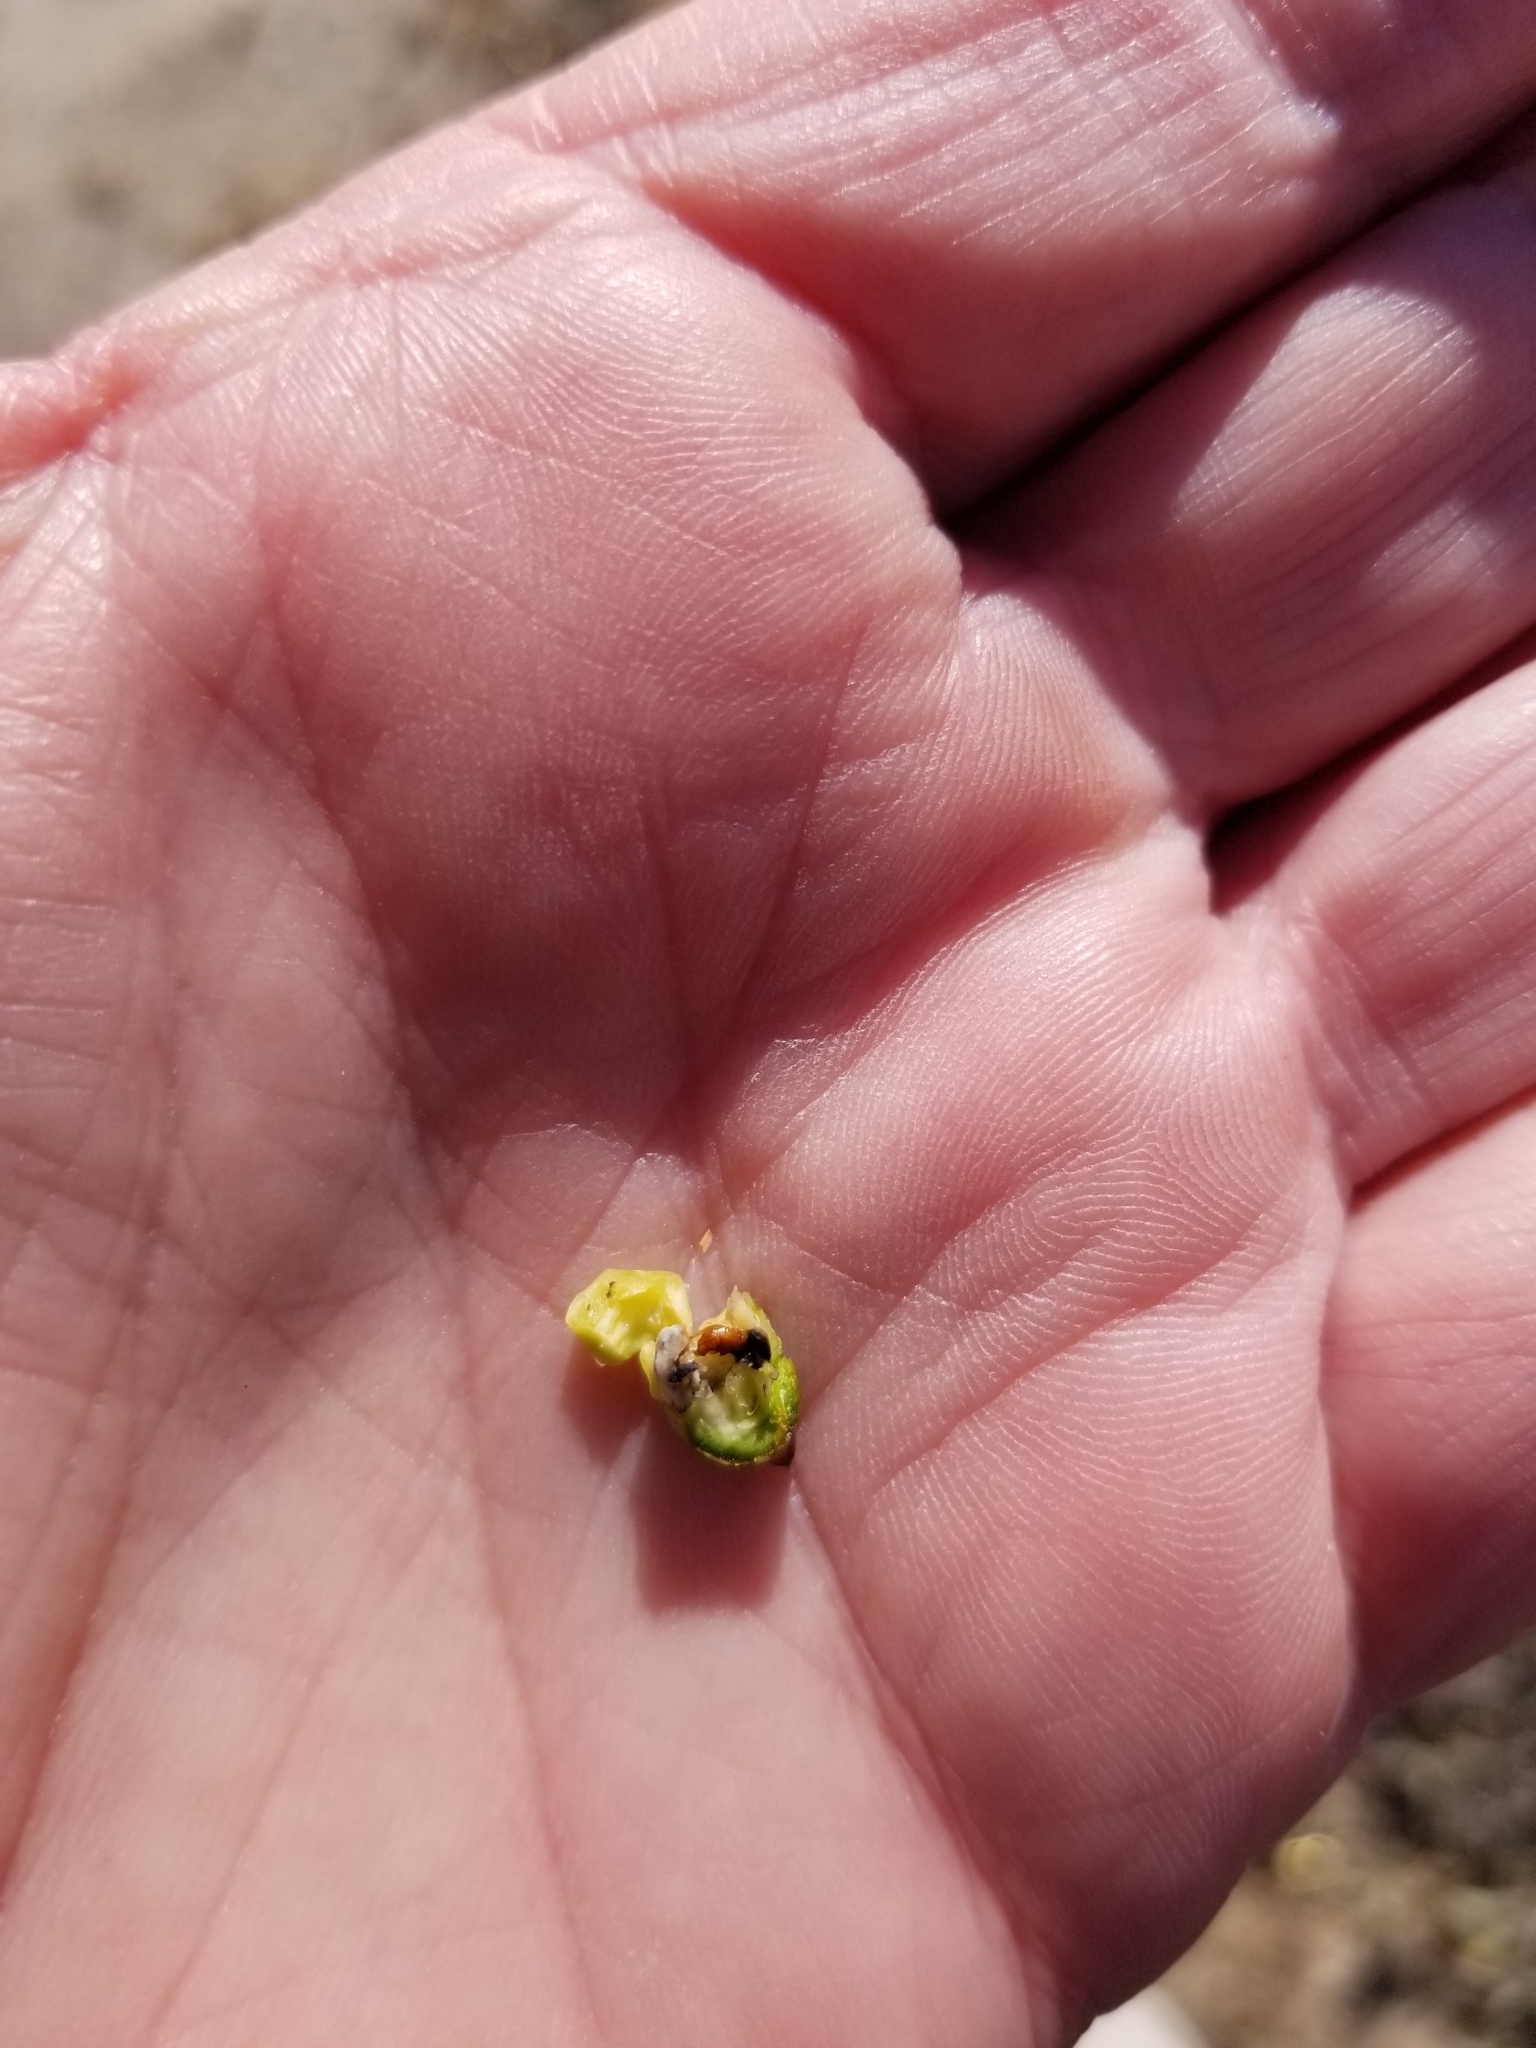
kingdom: Plantae
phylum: Tracheophyta
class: Magnoliopsida
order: Caryophyllales
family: Simmondsiaceae
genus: Simmondsia
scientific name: Simmondsia chinensis
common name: Jojoba
